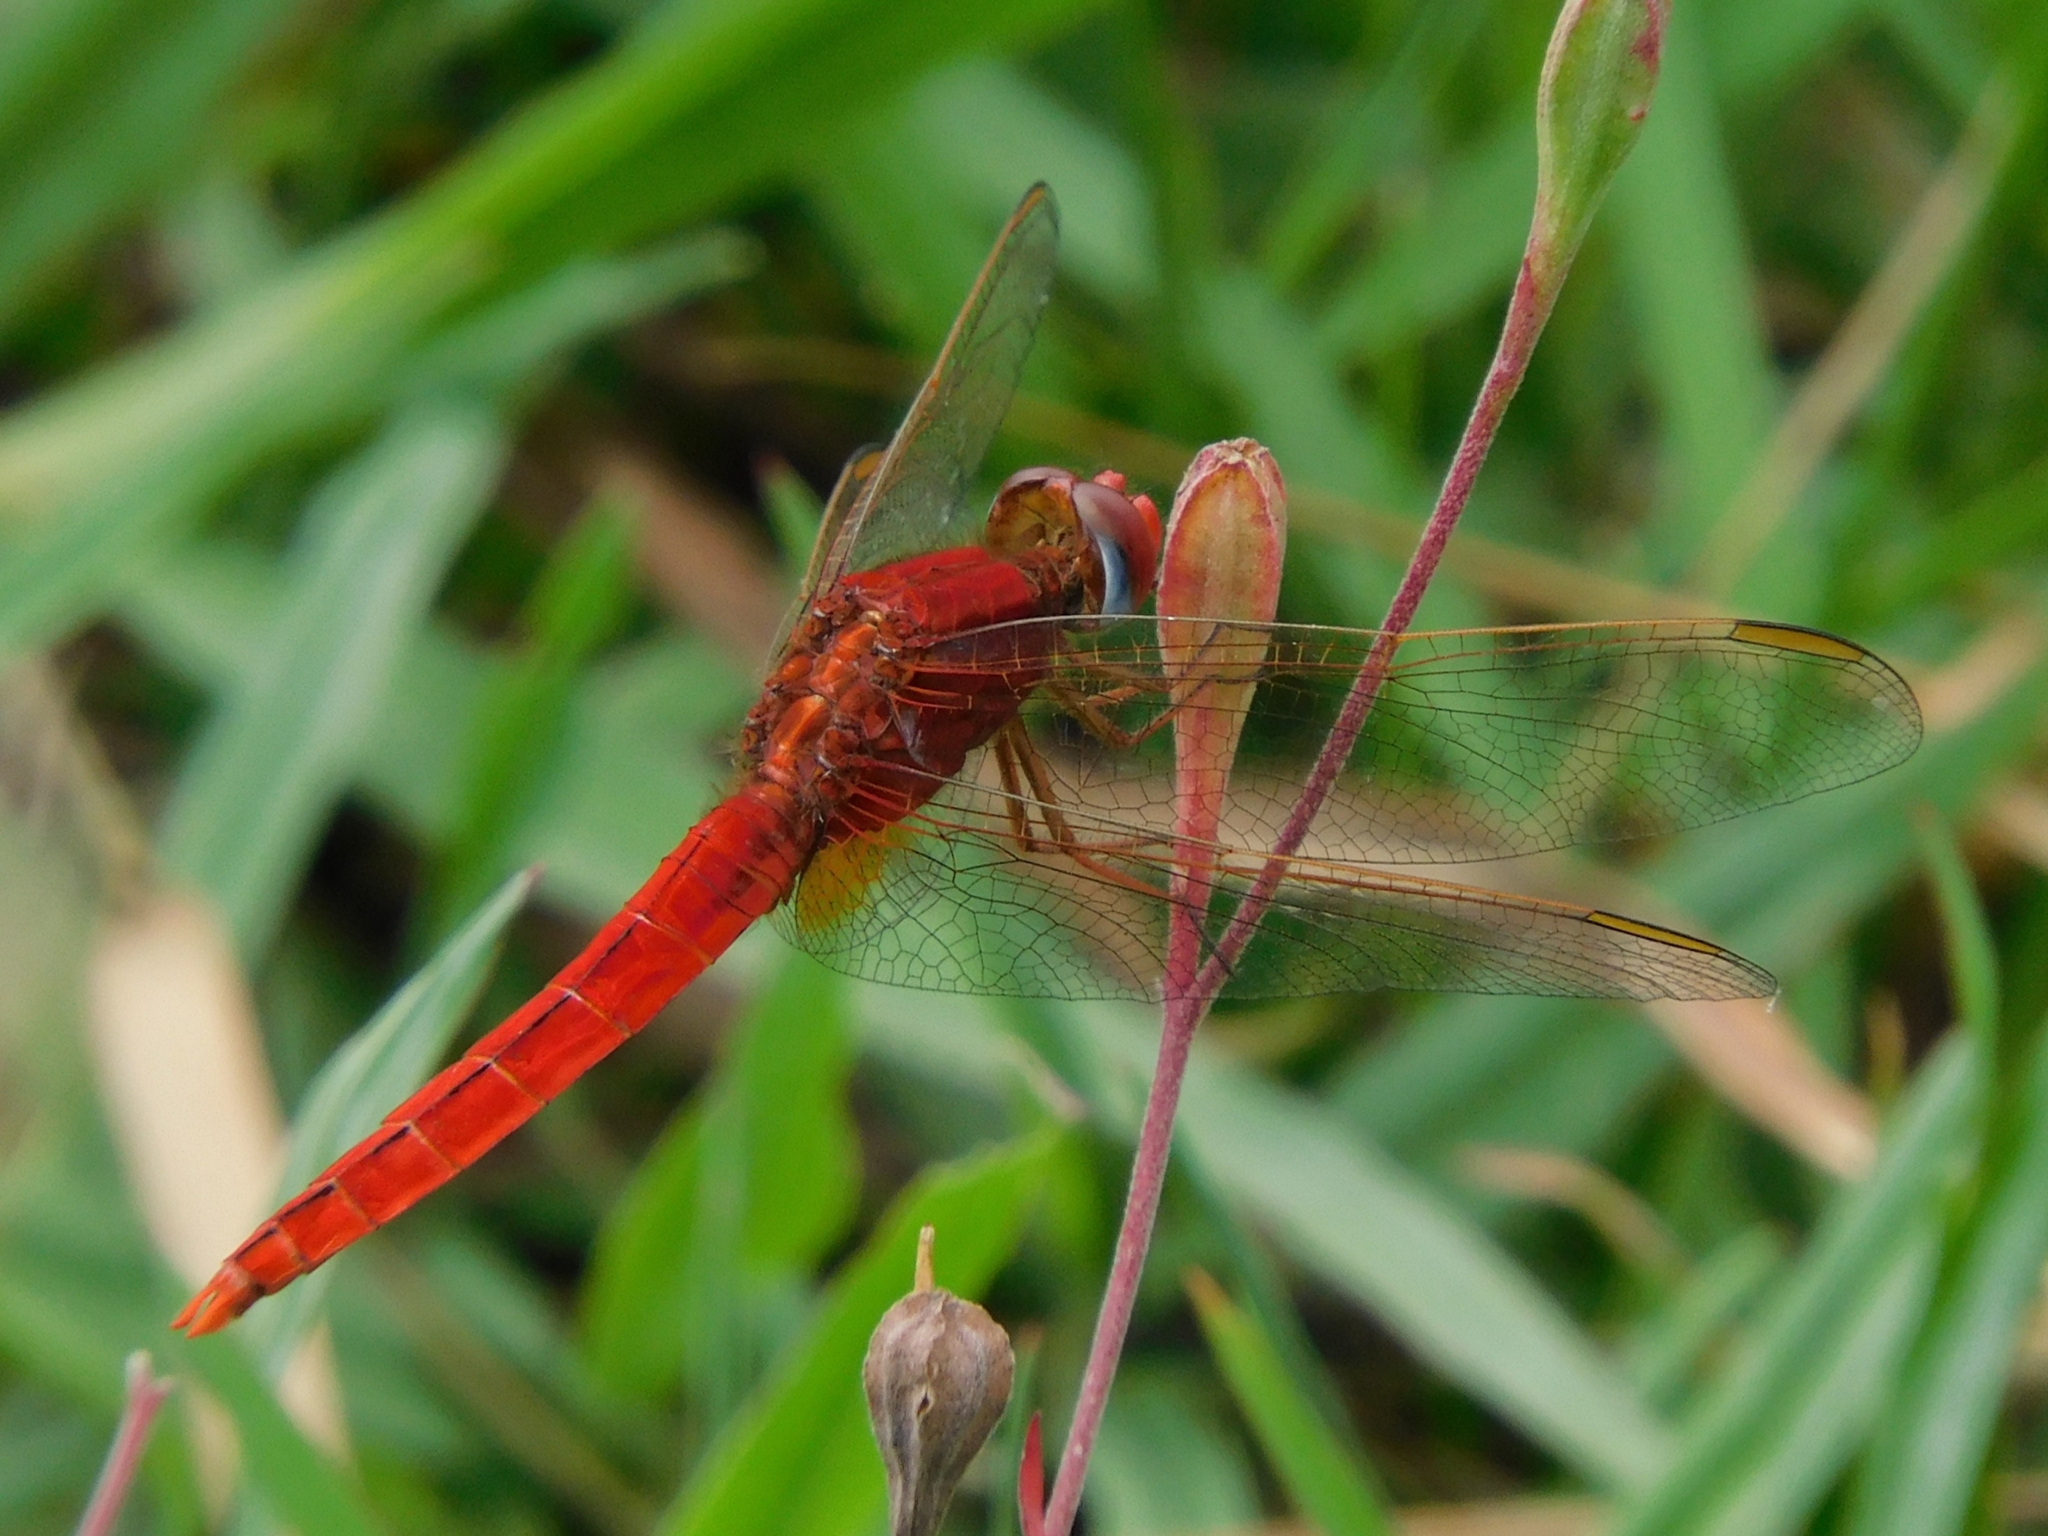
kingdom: Animalia
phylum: Arthropoda
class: Insecta
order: Odonata
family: Libellulidae
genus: Crocothemis
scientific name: Crocothemis servilia
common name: Scarlet skimmer
